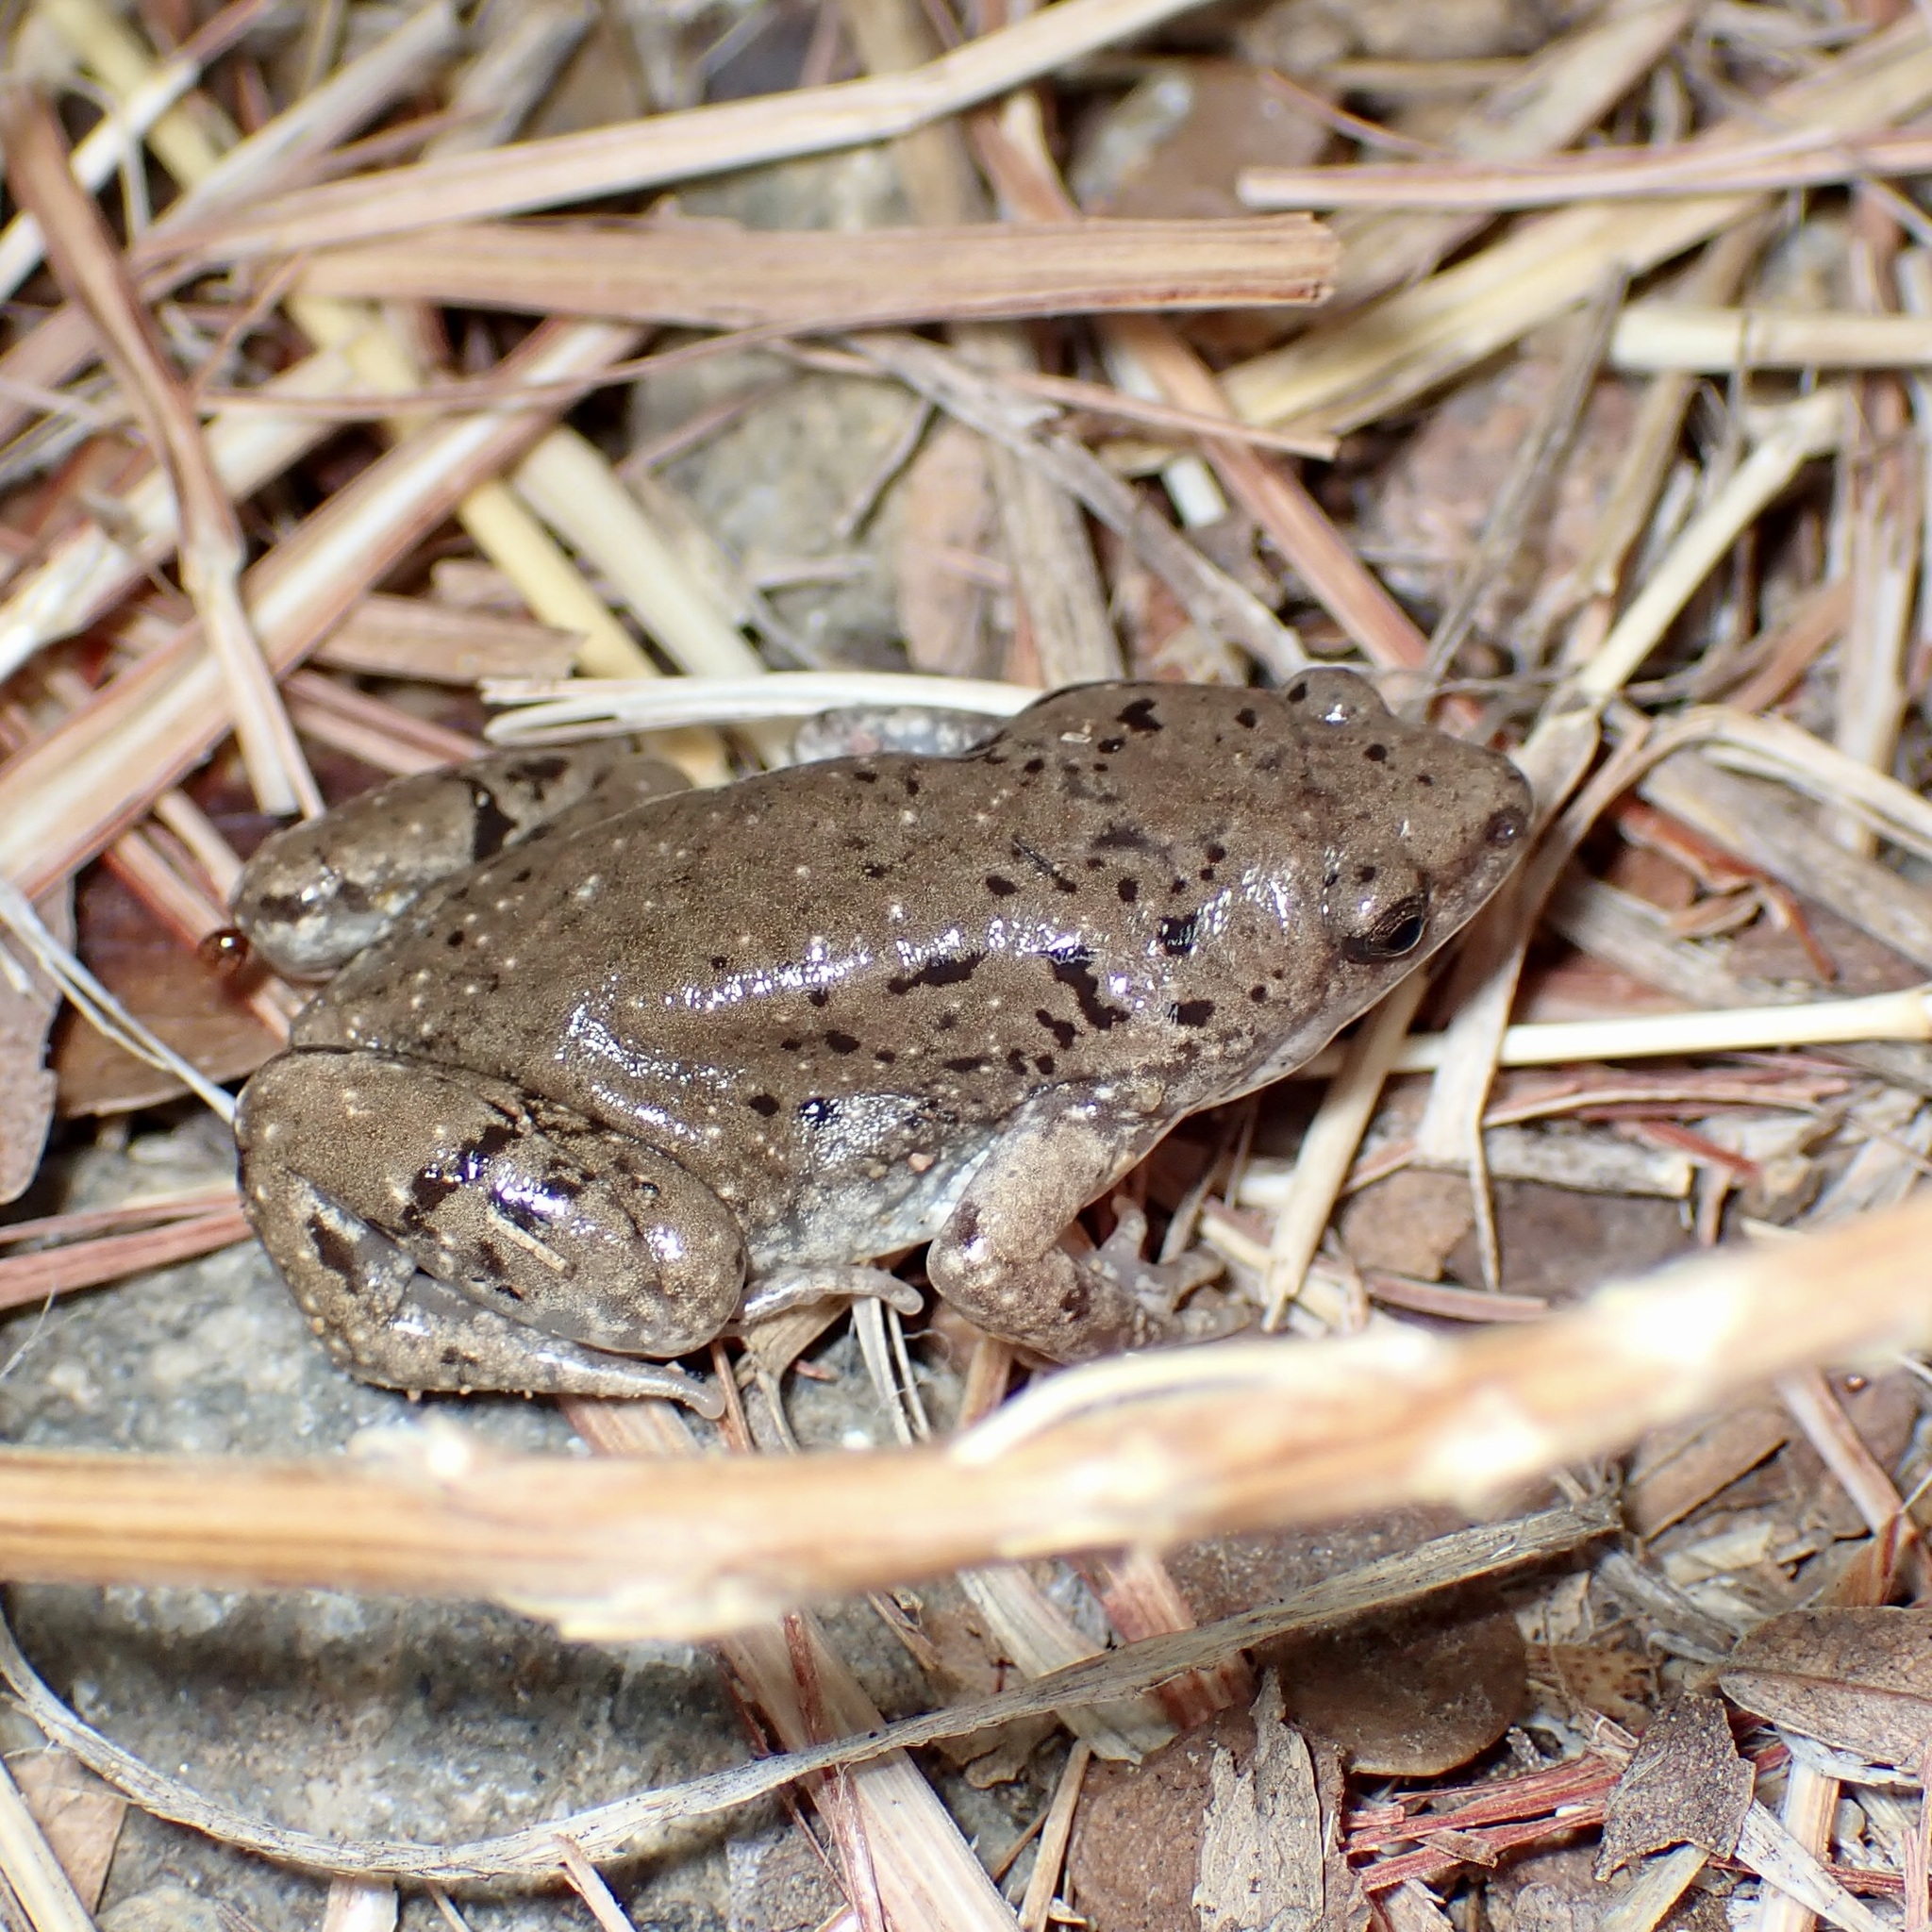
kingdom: Animalia
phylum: Chordata
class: Amphibia
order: Anura
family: Microhylidae
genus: Gastrophryne
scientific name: Gastrophryne mazatlanensis
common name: Sinaloan narrow-mouthed toad
